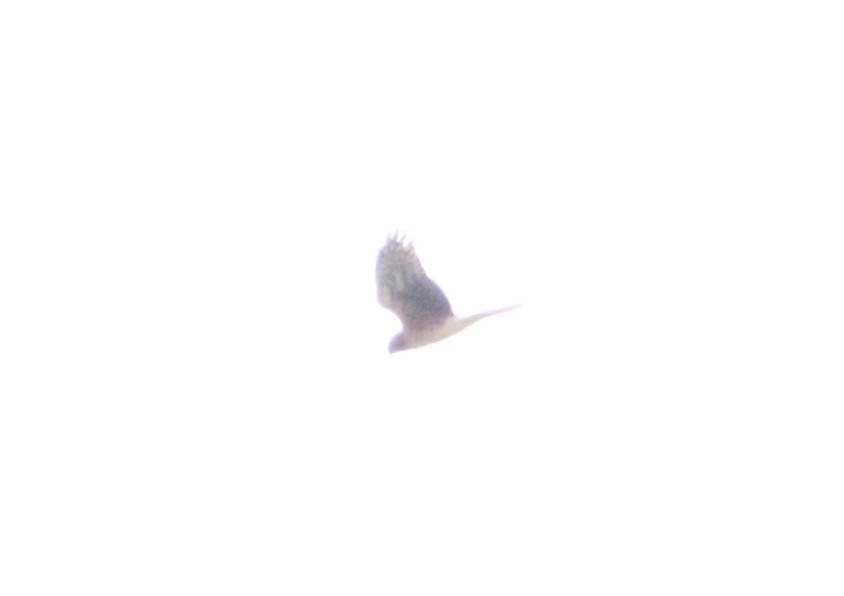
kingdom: Animalia
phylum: Chordata
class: Aves
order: Accipitriformes
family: Accipitridae
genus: Circus
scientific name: Circus cyaneus
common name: Hen harrier
